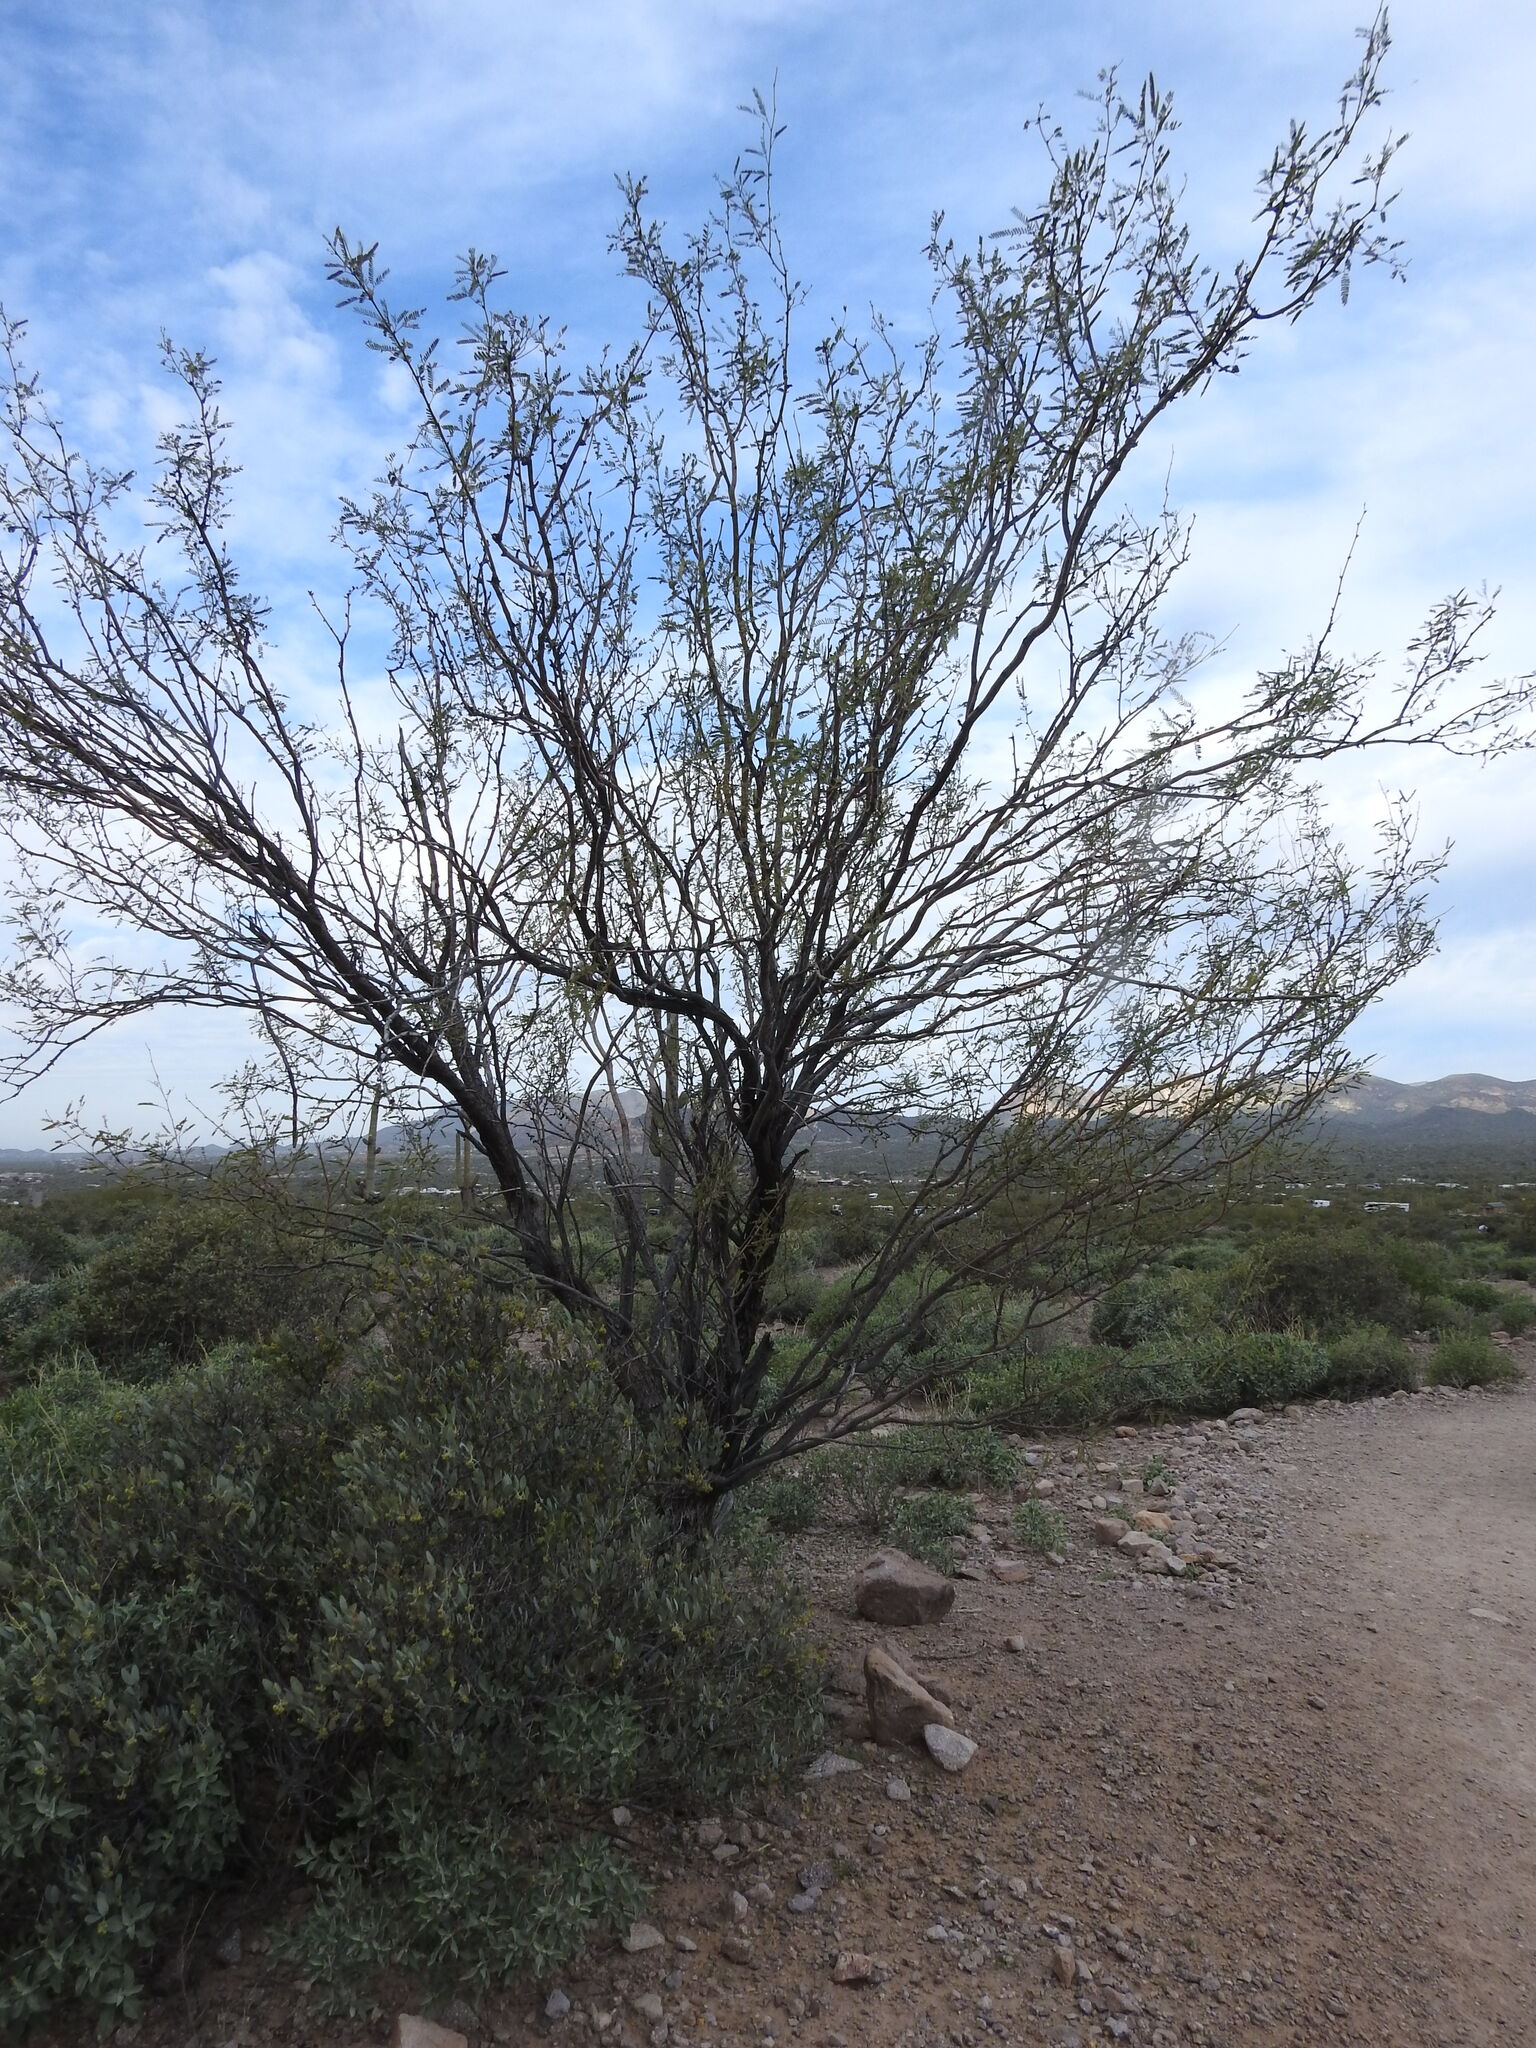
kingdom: Plantae
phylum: Tracheophyta
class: Magnoliopsida
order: Fabales
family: Fabaceae
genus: Prosopis
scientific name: Prosopis velutina
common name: Velvet mesquite
